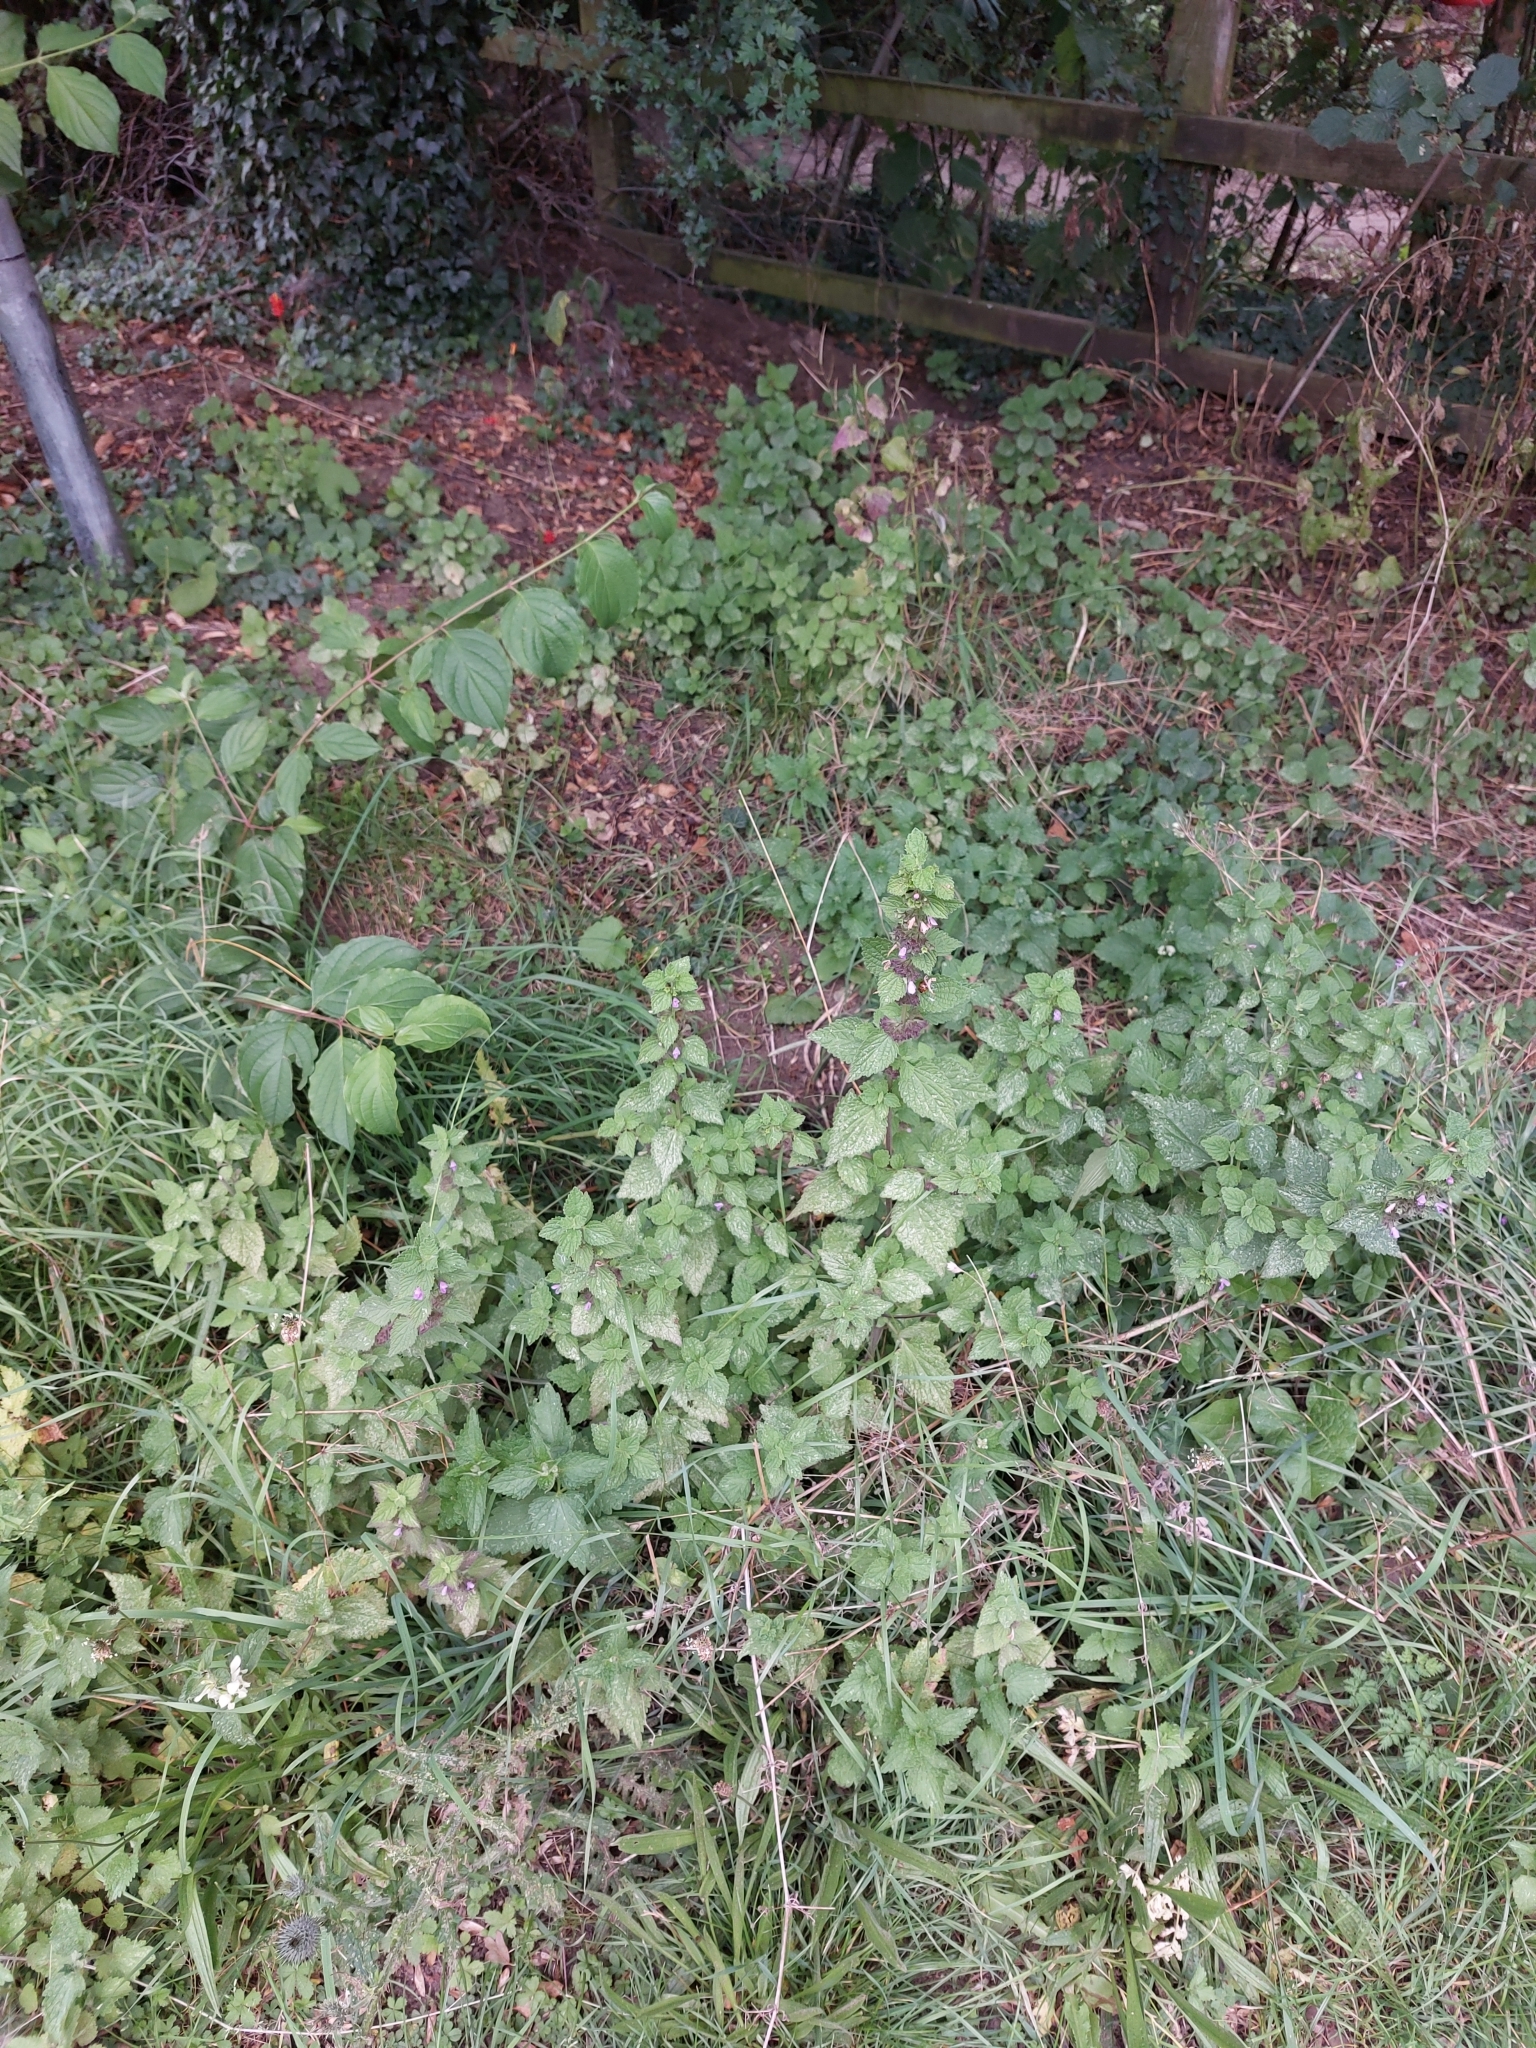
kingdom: Plantae
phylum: Tracheophyta
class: Magnoliopsida
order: Lamiales
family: Lamiaceae
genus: Ballota
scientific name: Ballota nigra
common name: Black horehound
